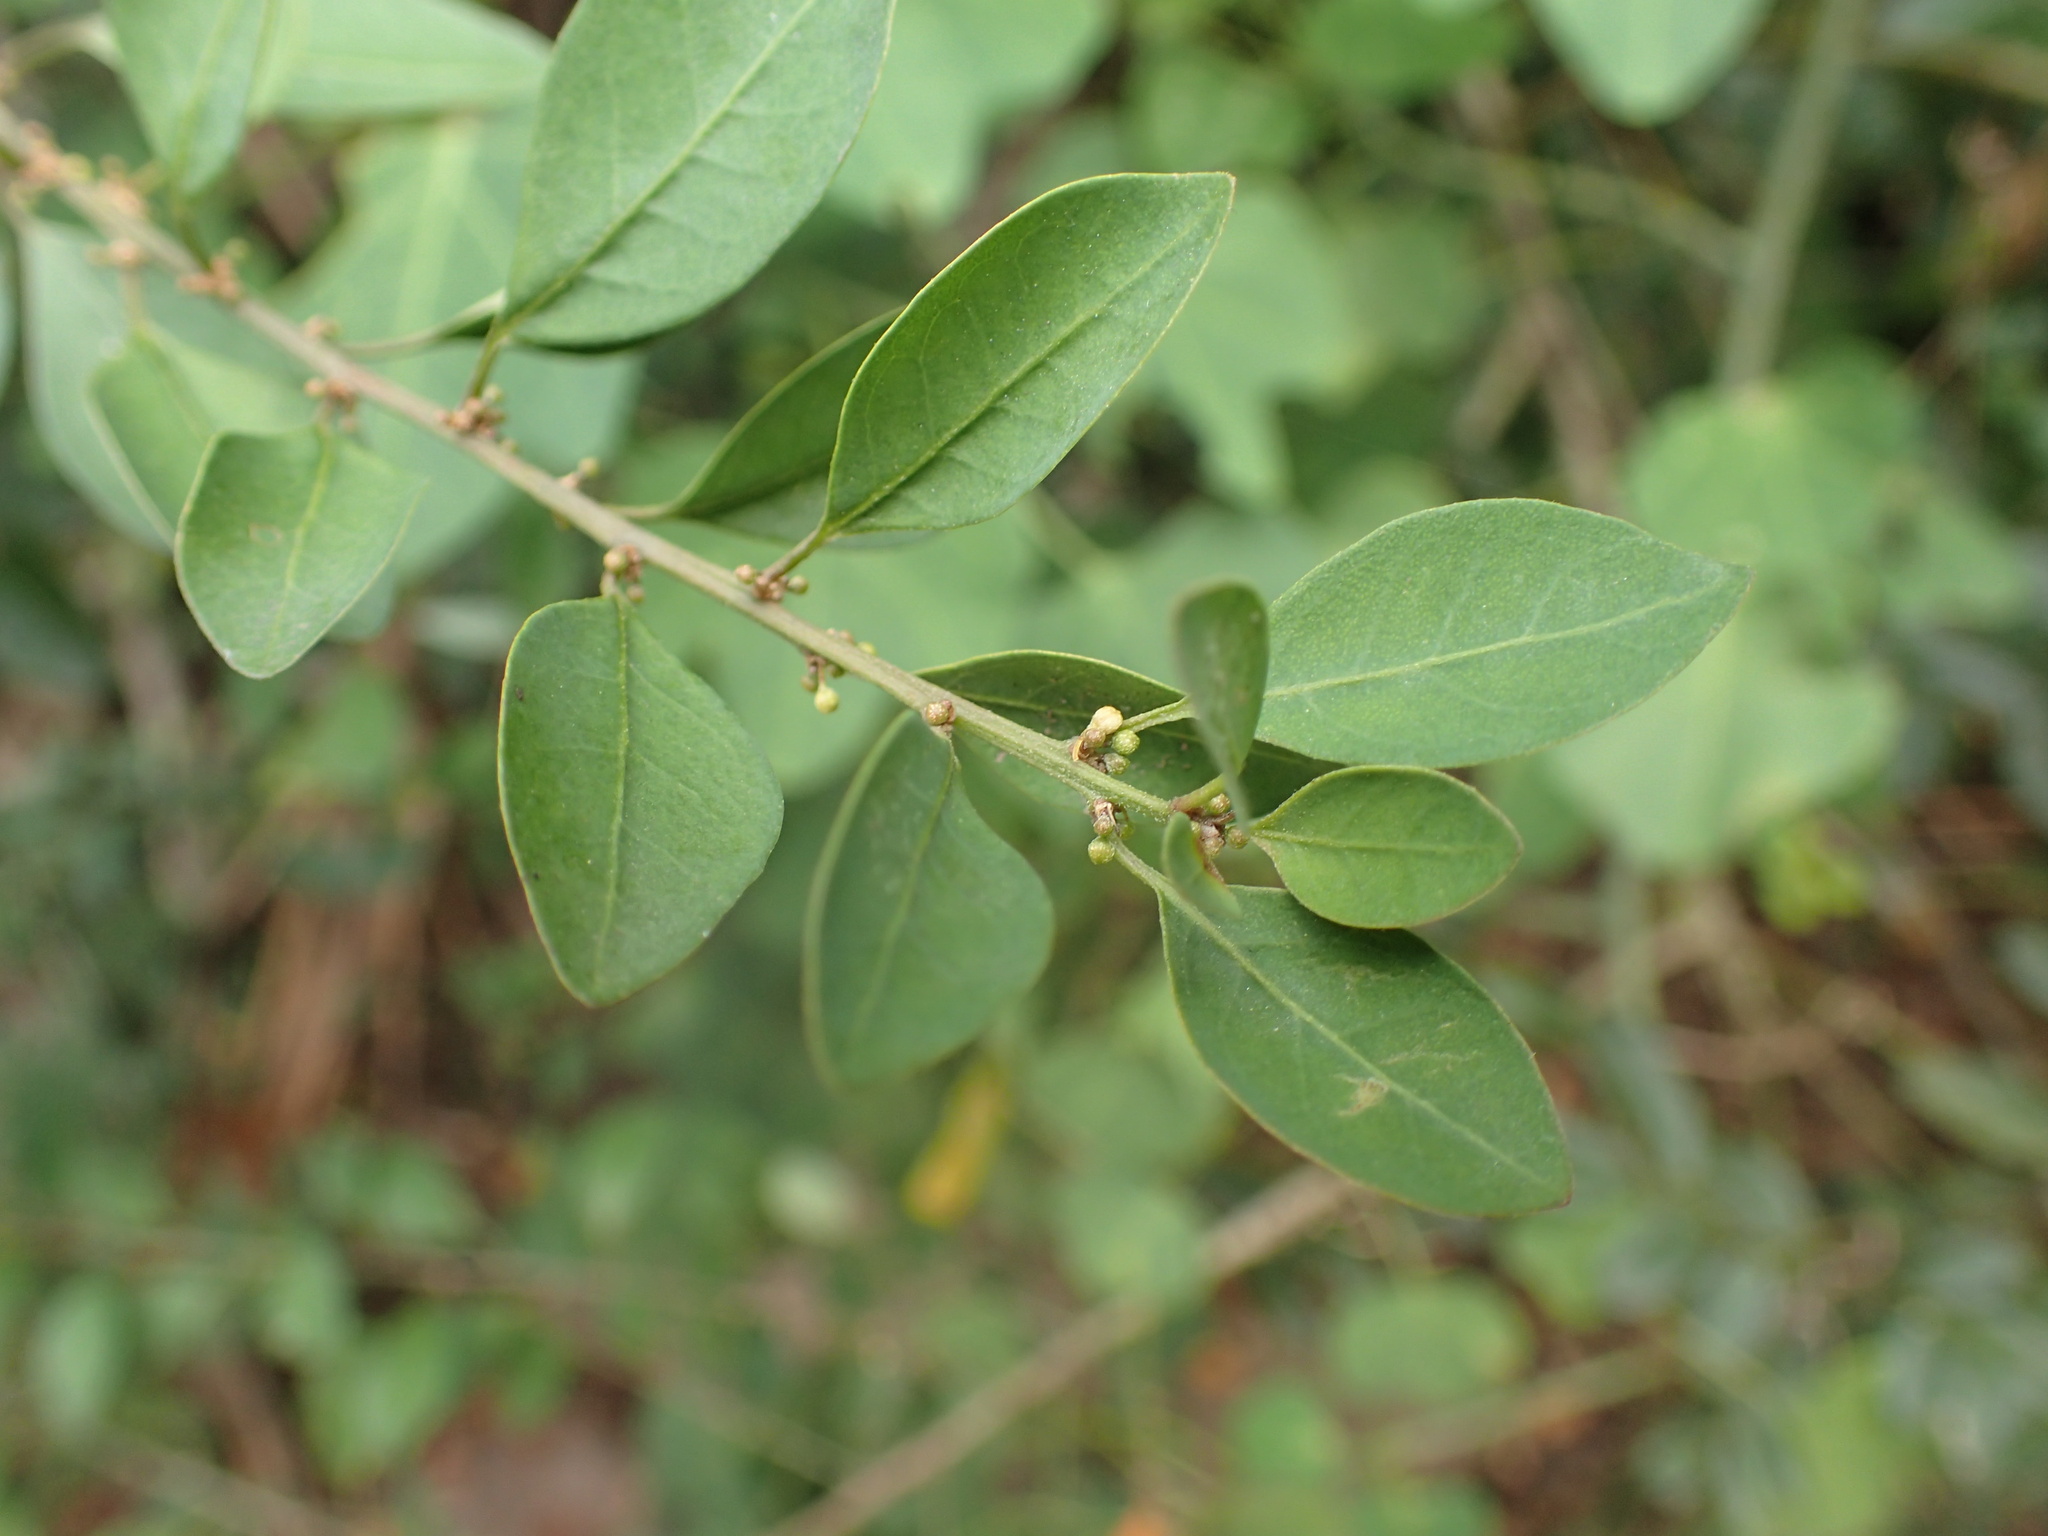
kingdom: Plantae
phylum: Tracheophyta
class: Magnoliopsida
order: Malpighiales
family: Peraceae
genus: Clutia
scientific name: Clutia pulchella
